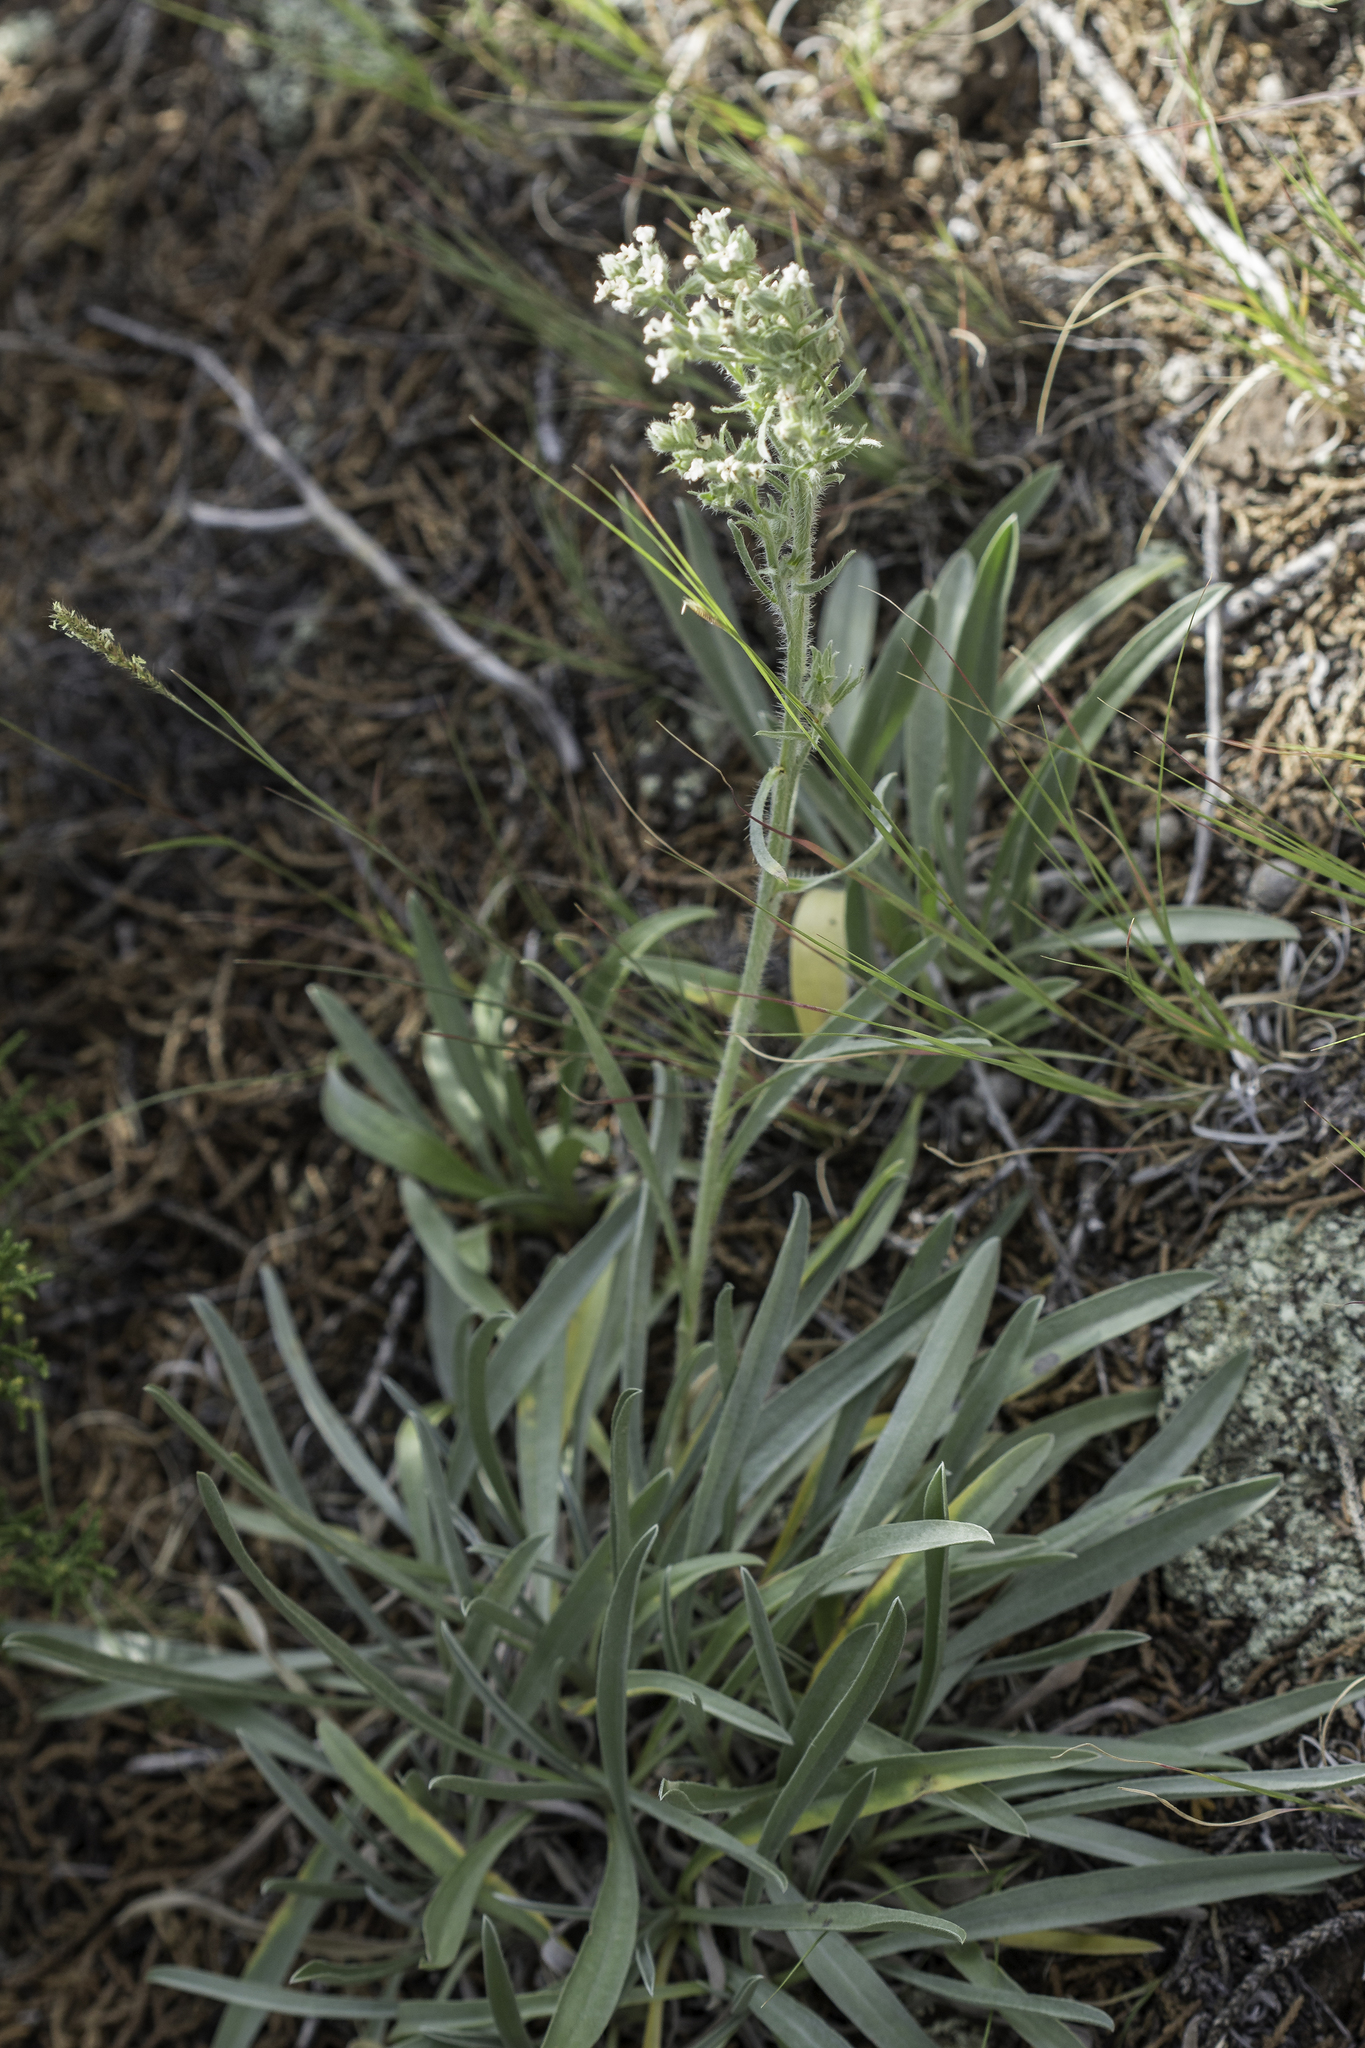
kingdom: Plantae
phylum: Tracheophyta
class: Magnoliopsida
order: Boraginales
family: Boraginaceae
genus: Oreocarya
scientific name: Oreocarya suffruticosa
